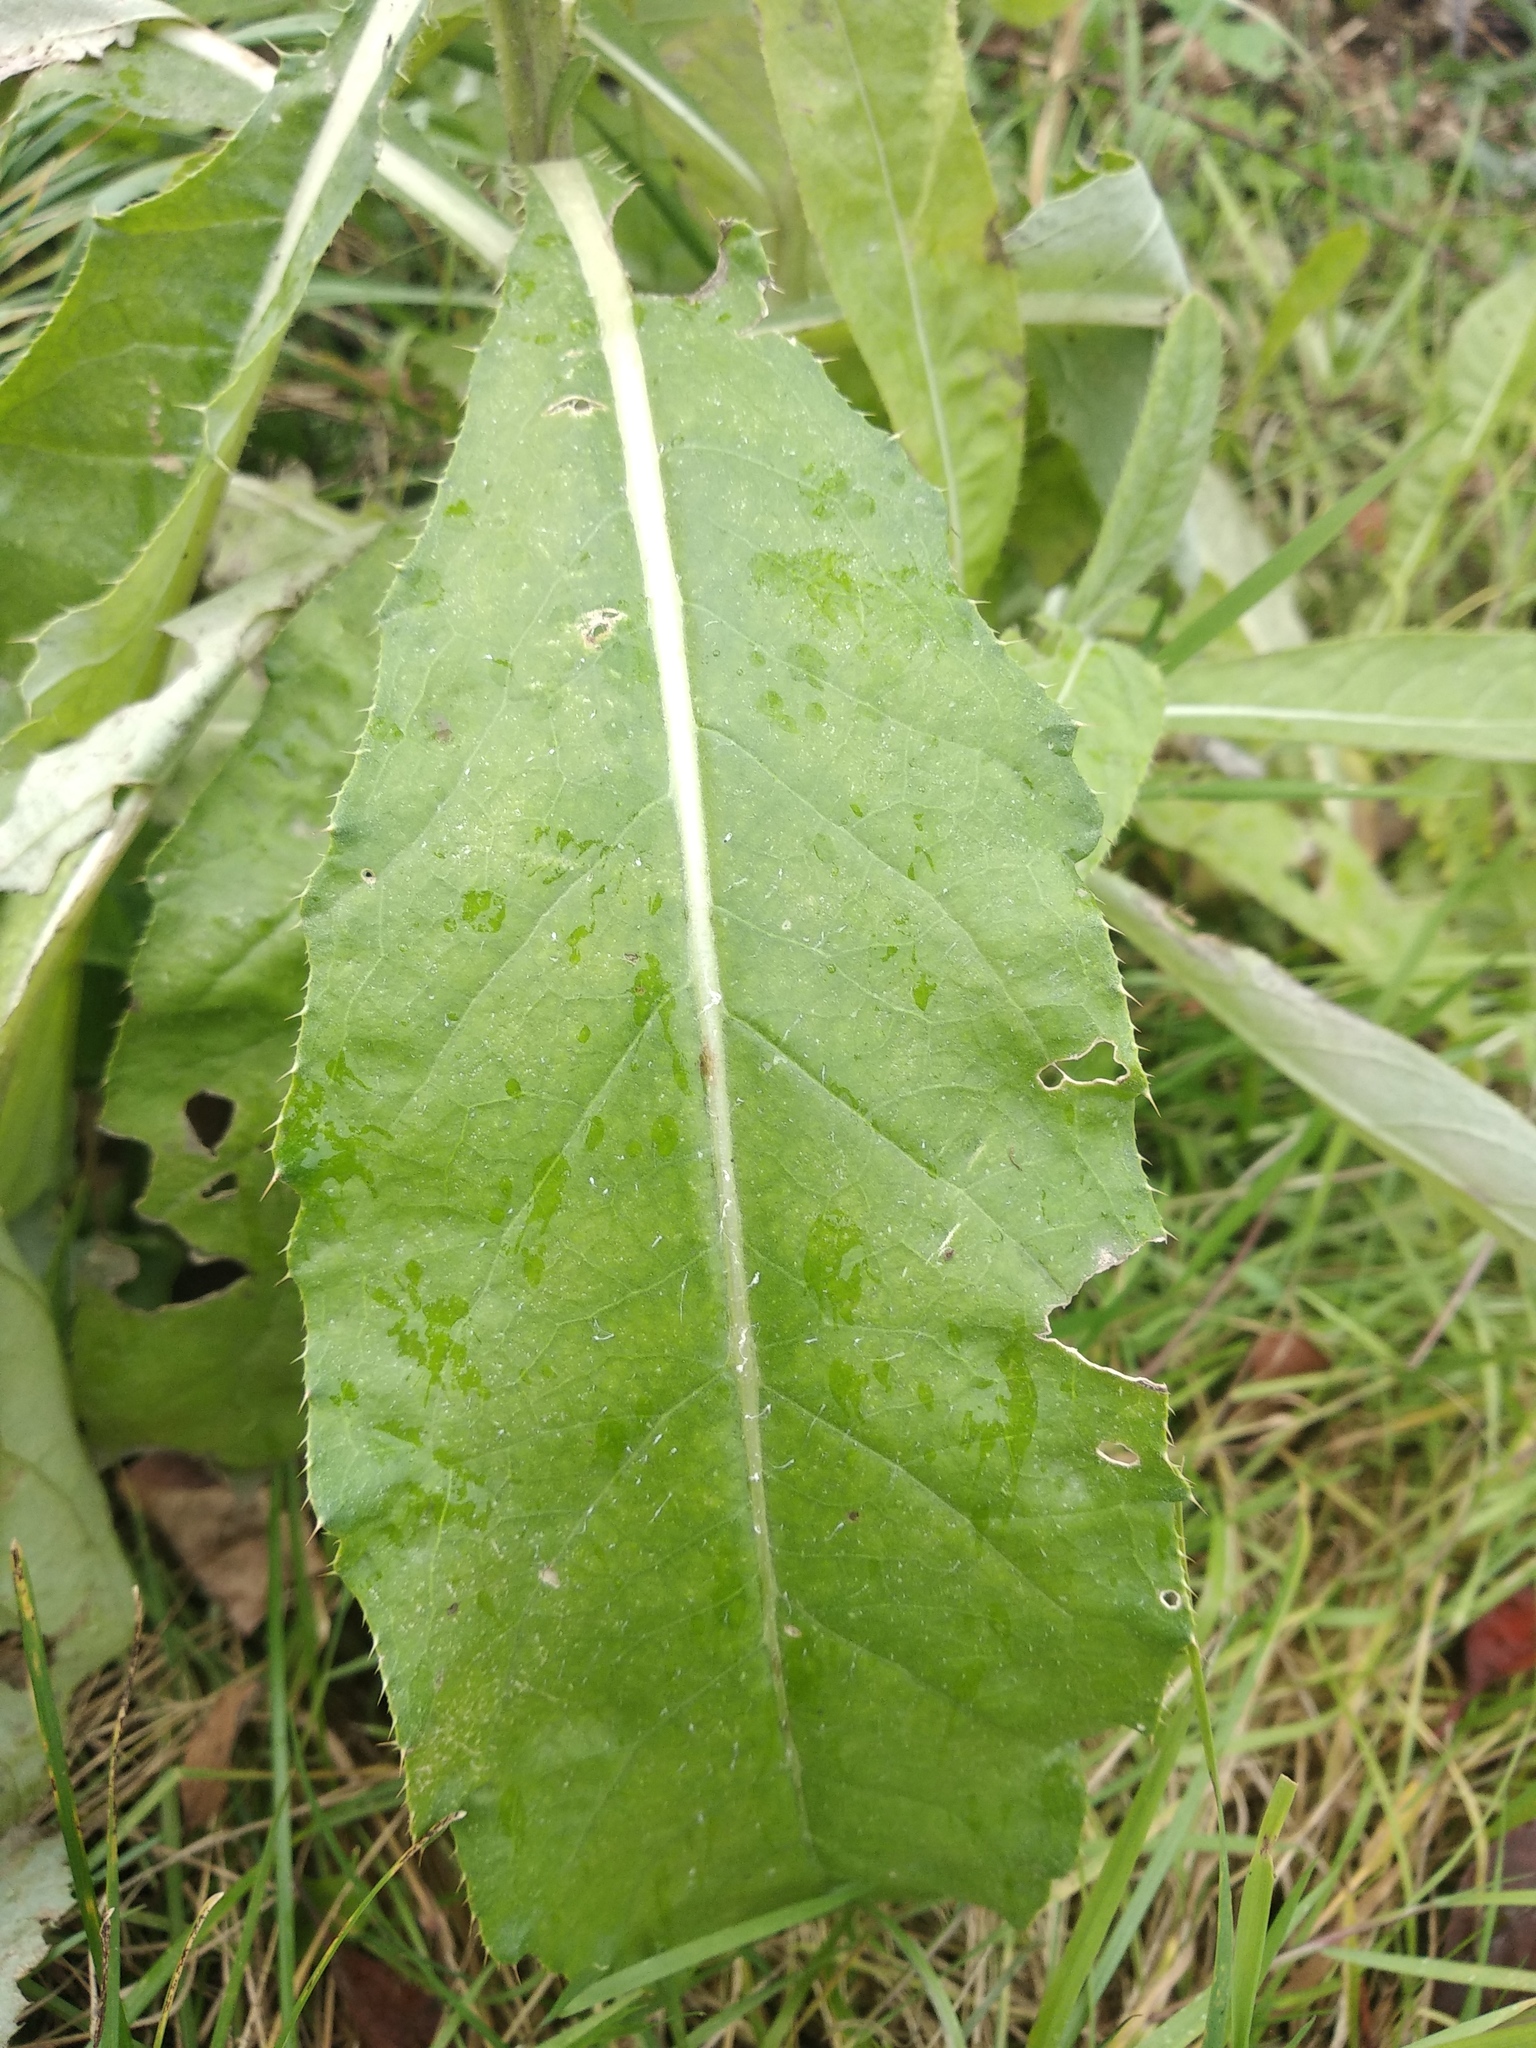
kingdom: Plantae
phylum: Tracheophyta
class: Magnoliopsida
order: Asterales
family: Asteraceae
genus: Cirsium
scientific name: Cirsium arvense
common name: Creeping thistle
